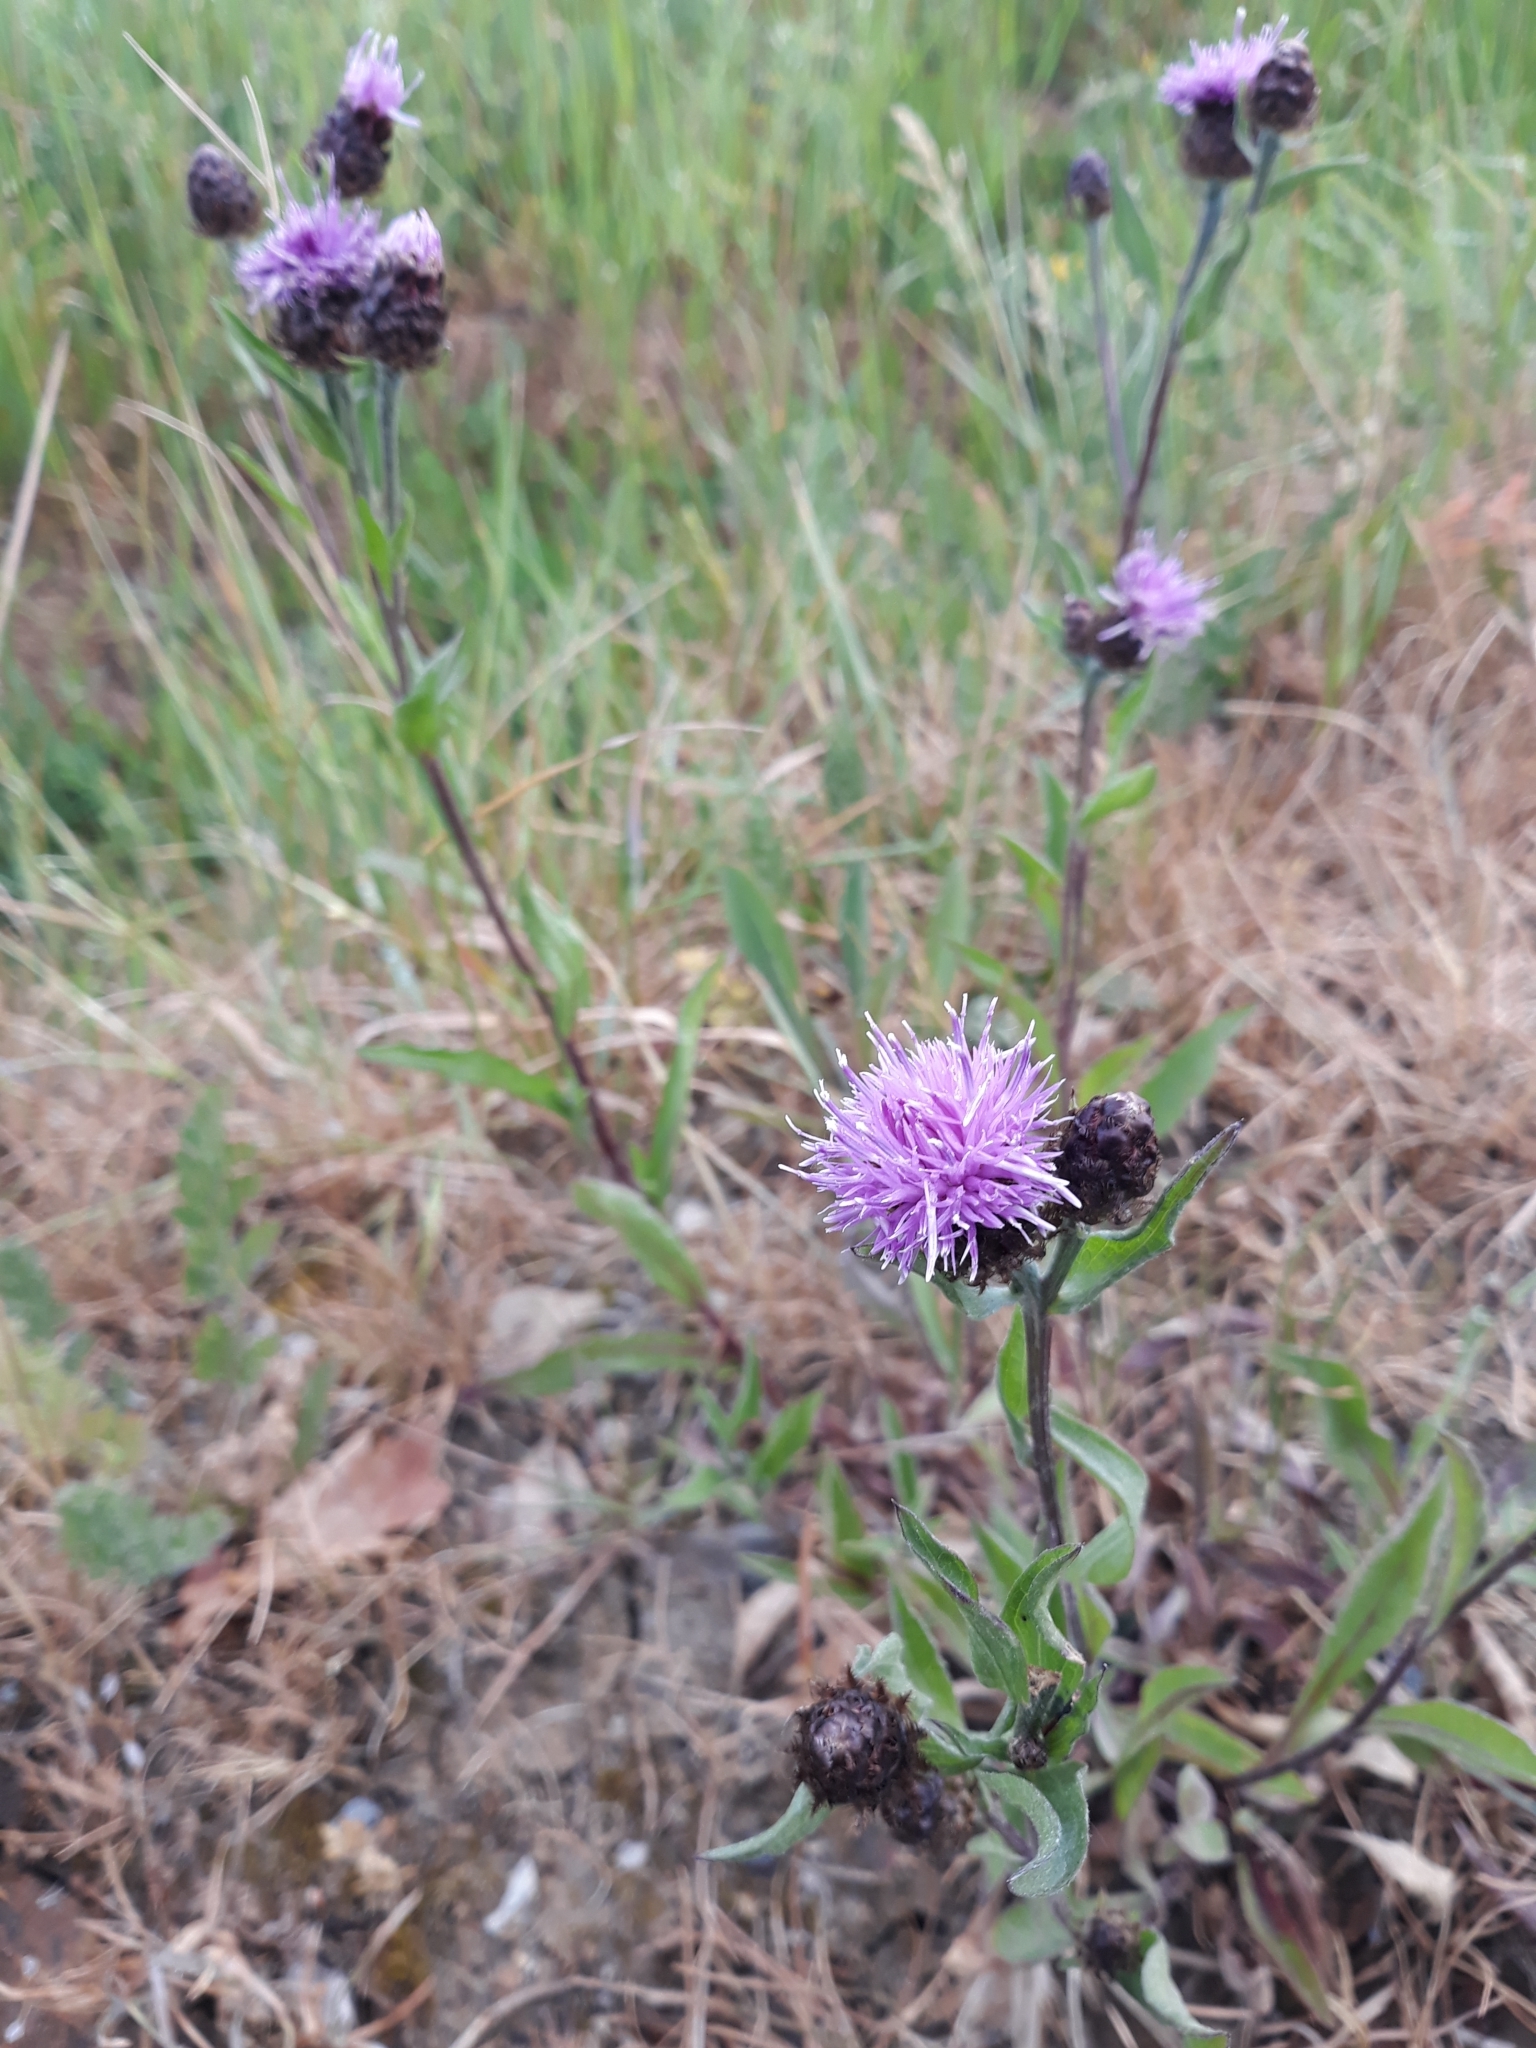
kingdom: Plantae
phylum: Tracheophyta
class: Magnoliopsida
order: Asterales
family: Asteraceae
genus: Centaurea
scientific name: Centaurea nigra
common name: Lesser knapweed
